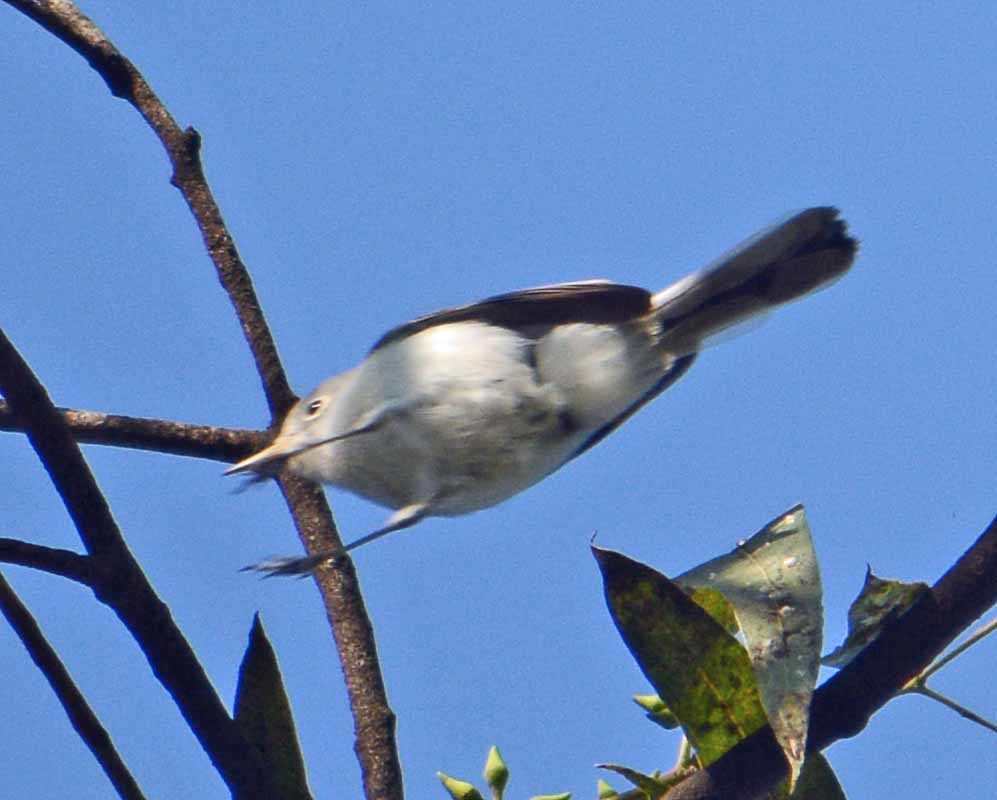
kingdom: Animalia
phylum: Chordata
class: Aves
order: Passeriformes
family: Polioptilidae
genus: Polioptila
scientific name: Polioptila caerulea
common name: Blue-gray gnatcatcher
